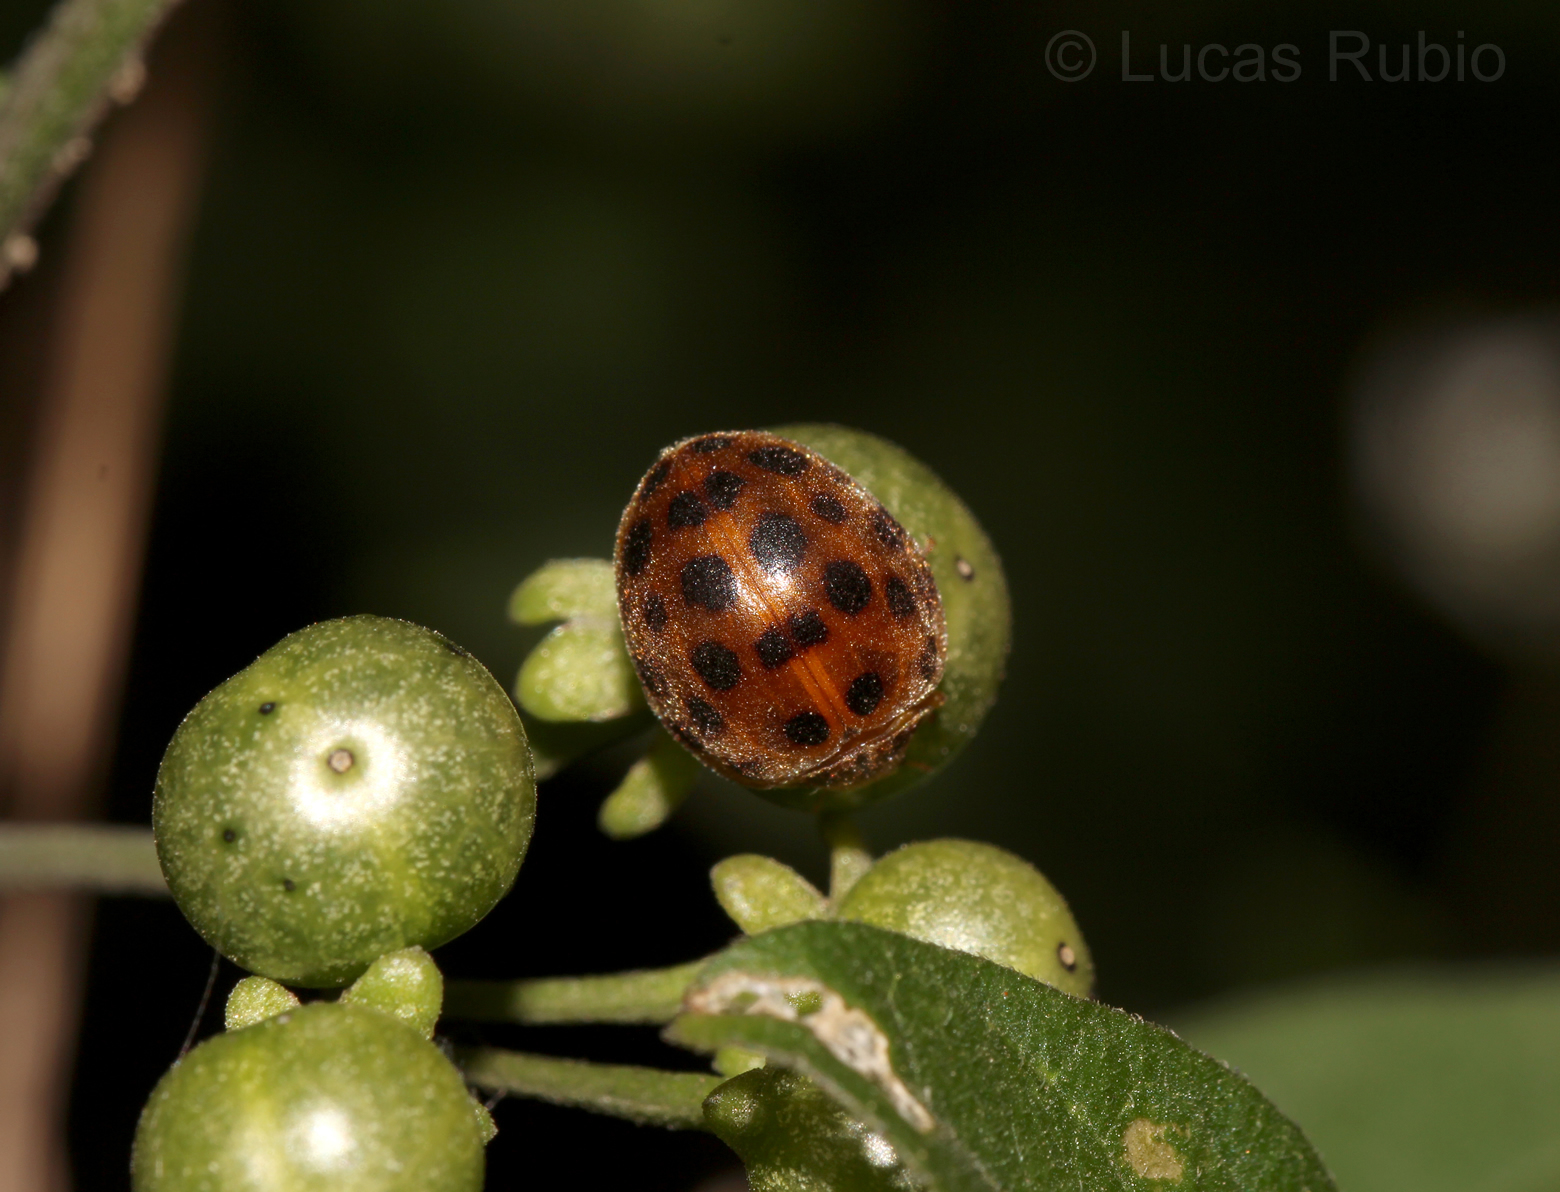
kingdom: Animalia
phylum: Arthropoda
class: Insecta
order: Coleoptera
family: Coccinellidae
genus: Henosepilachna
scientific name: Henosepilachna vigintioctopunctata
